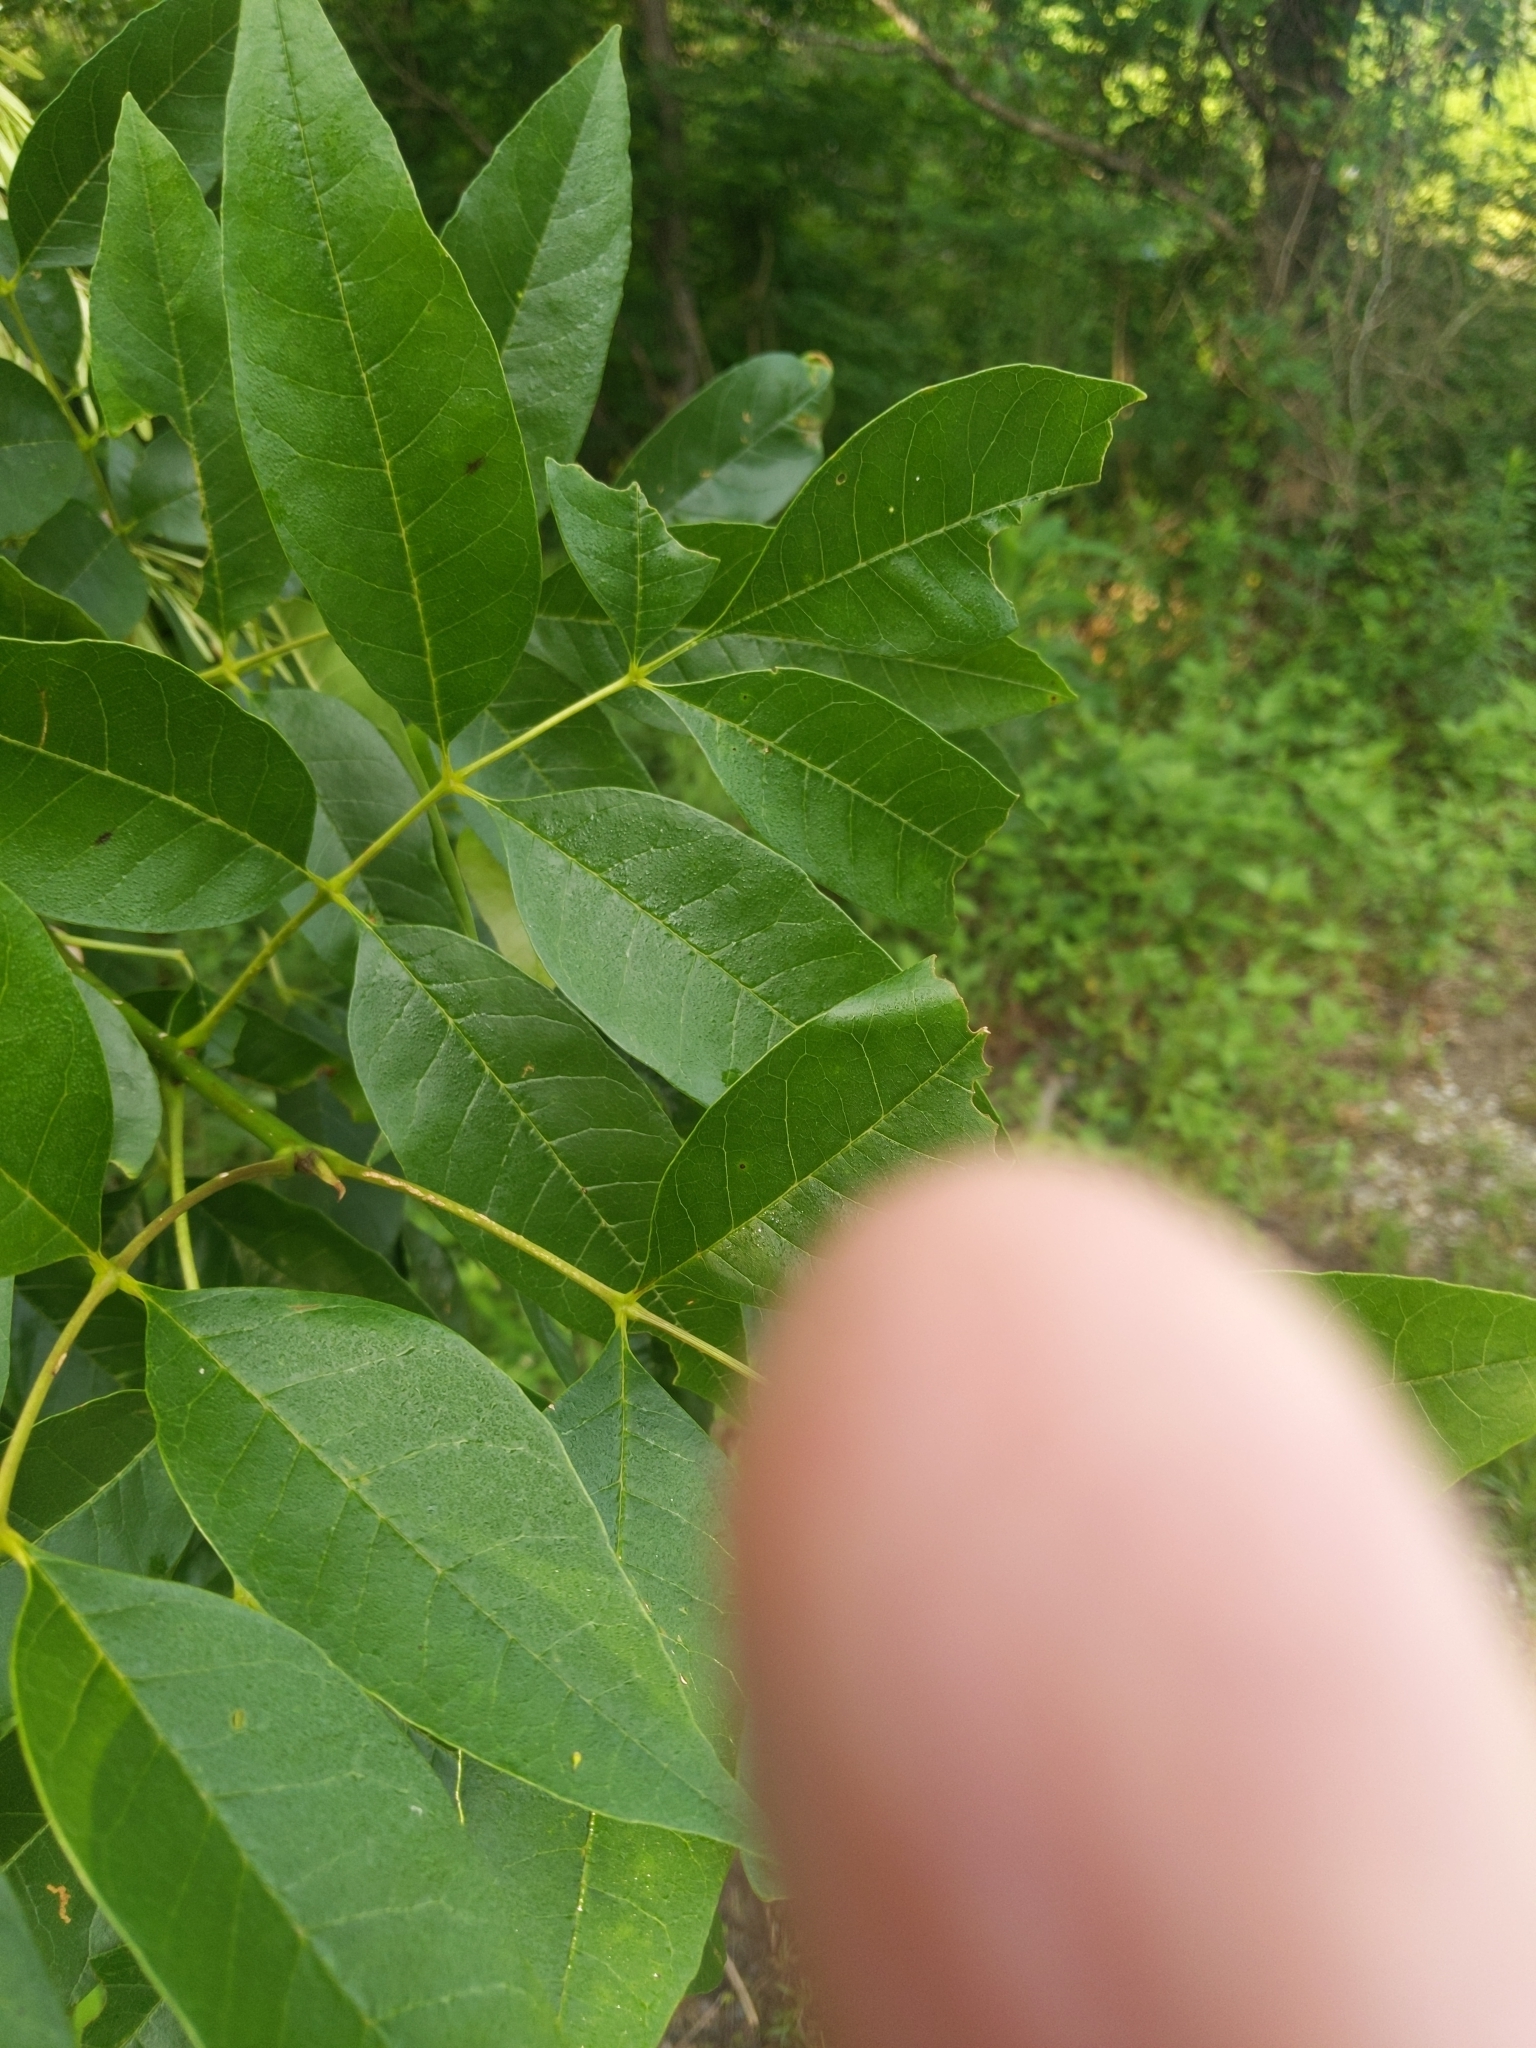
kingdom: Plantae
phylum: Tracheophyta
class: Magnoliopsida
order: Lamiales
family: Oleaceae
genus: Fraxinus
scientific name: Fraxinus pennsylvanica
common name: Green ash
